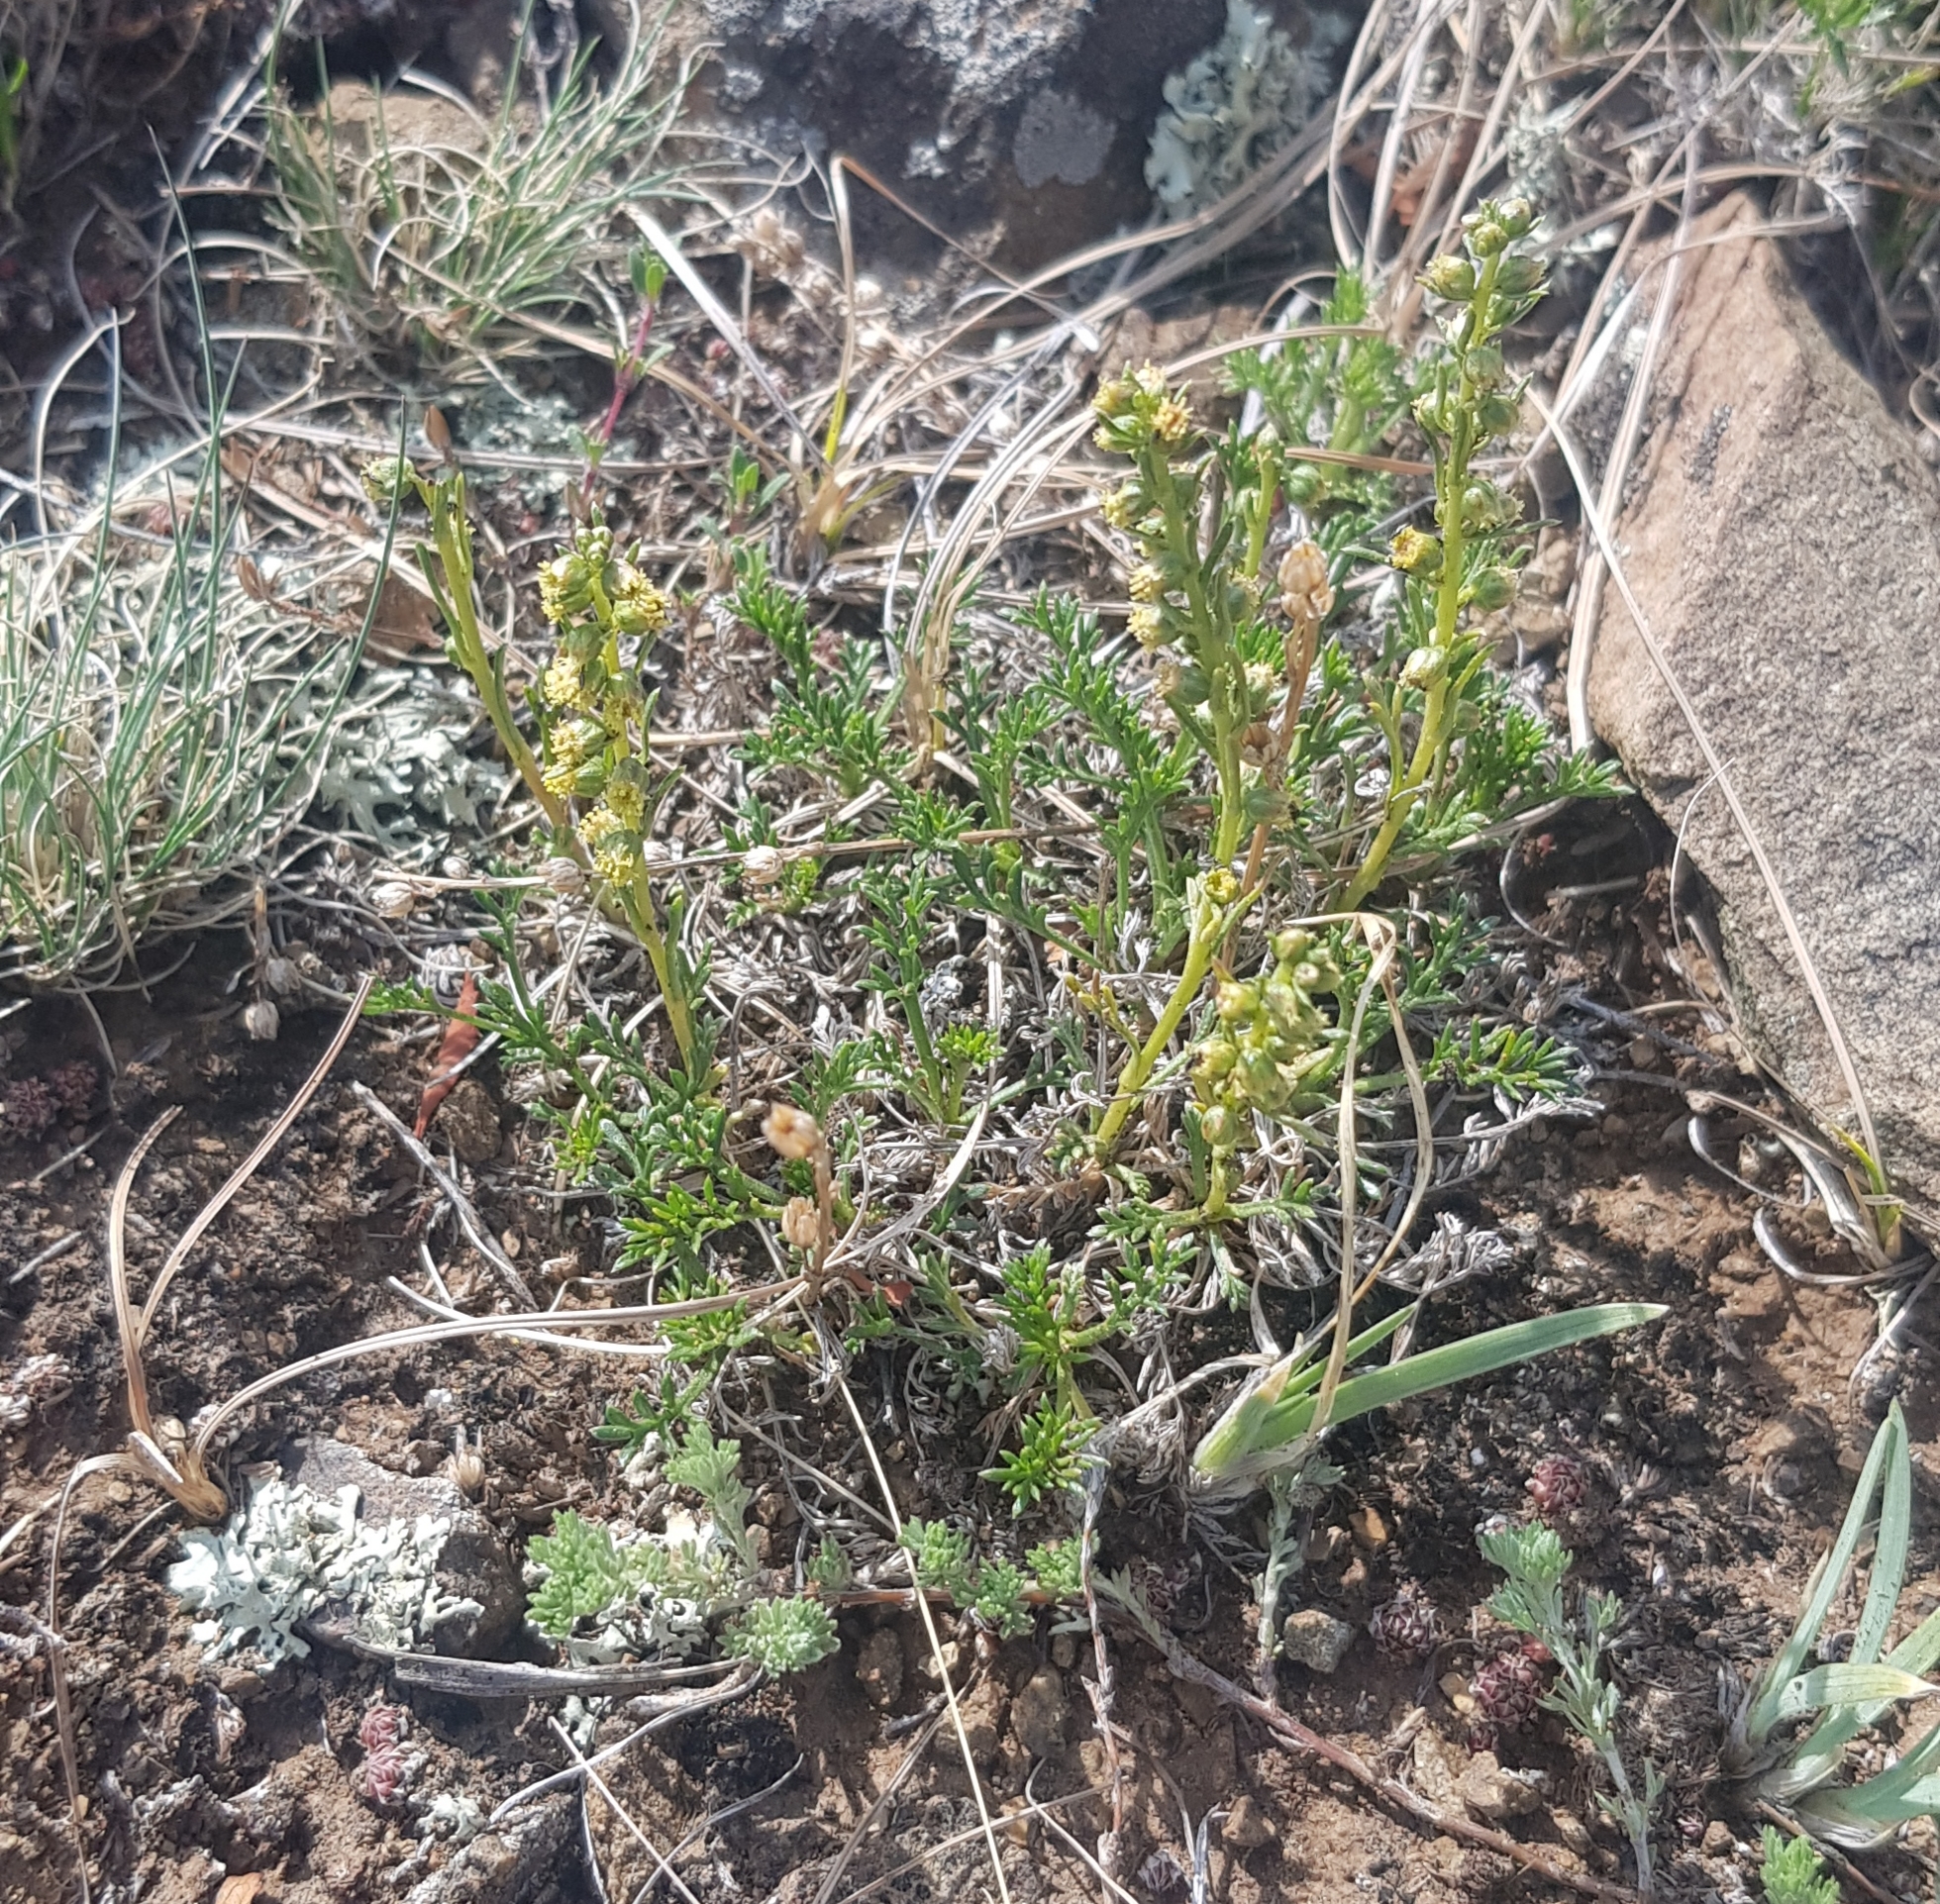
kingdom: Plantae
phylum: Tracheophyta
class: Magnoliopsida
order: Asterales
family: Asteraceae
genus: Artemisia
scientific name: Artemisia pubescens
